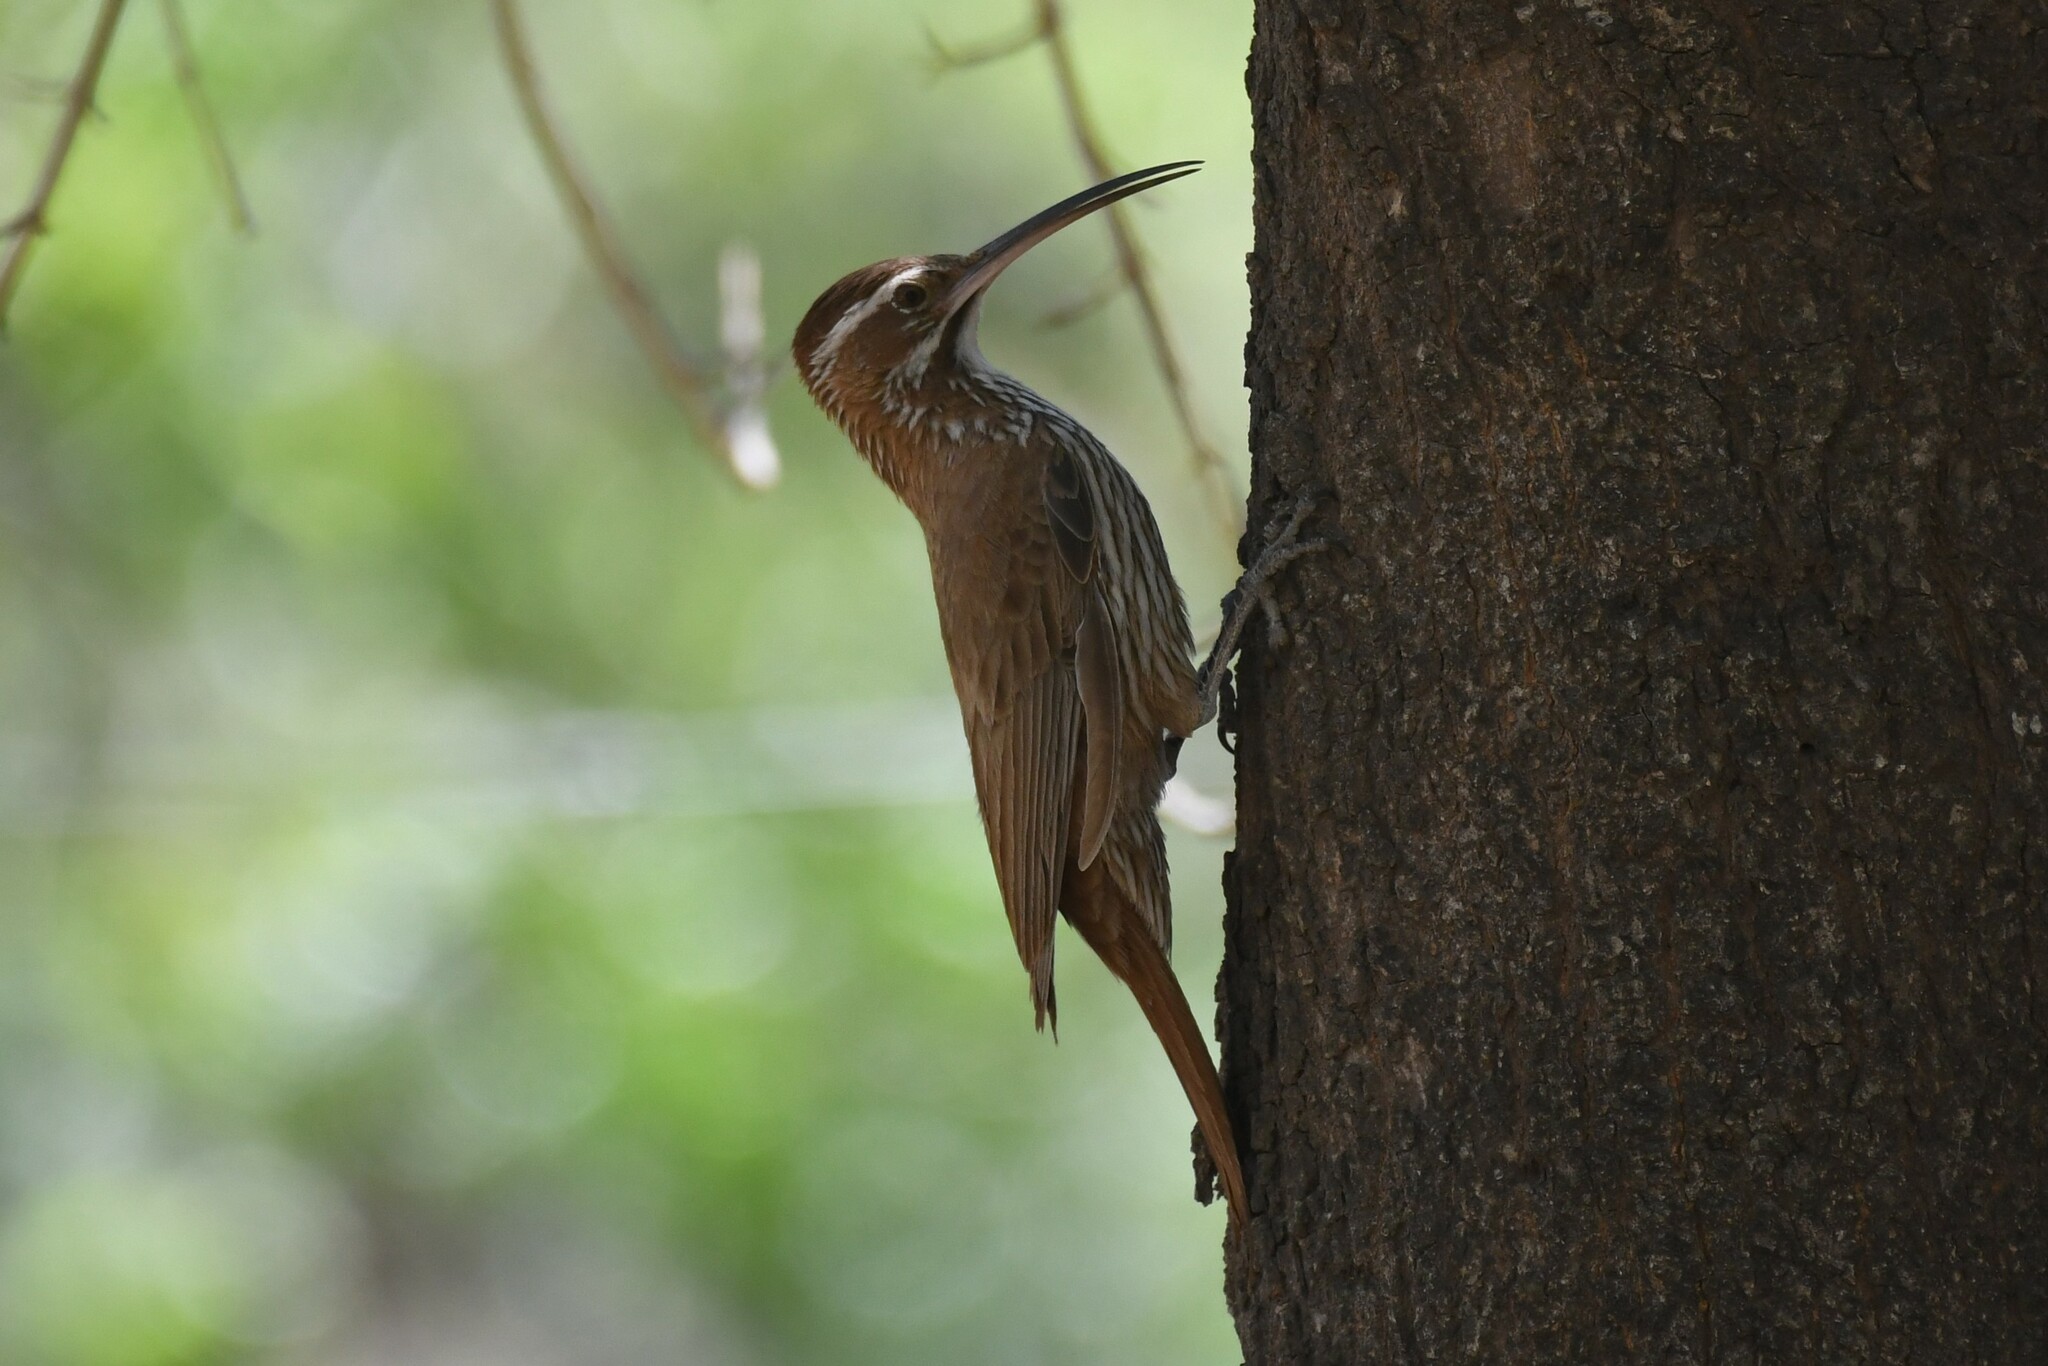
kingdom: Animalia
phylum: Chordata
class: Aves
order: Passeriformes
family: Furnariidae
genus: Drymornis
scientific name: Drymornis bridgesii
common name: Scimitar-billed woodcreeper
